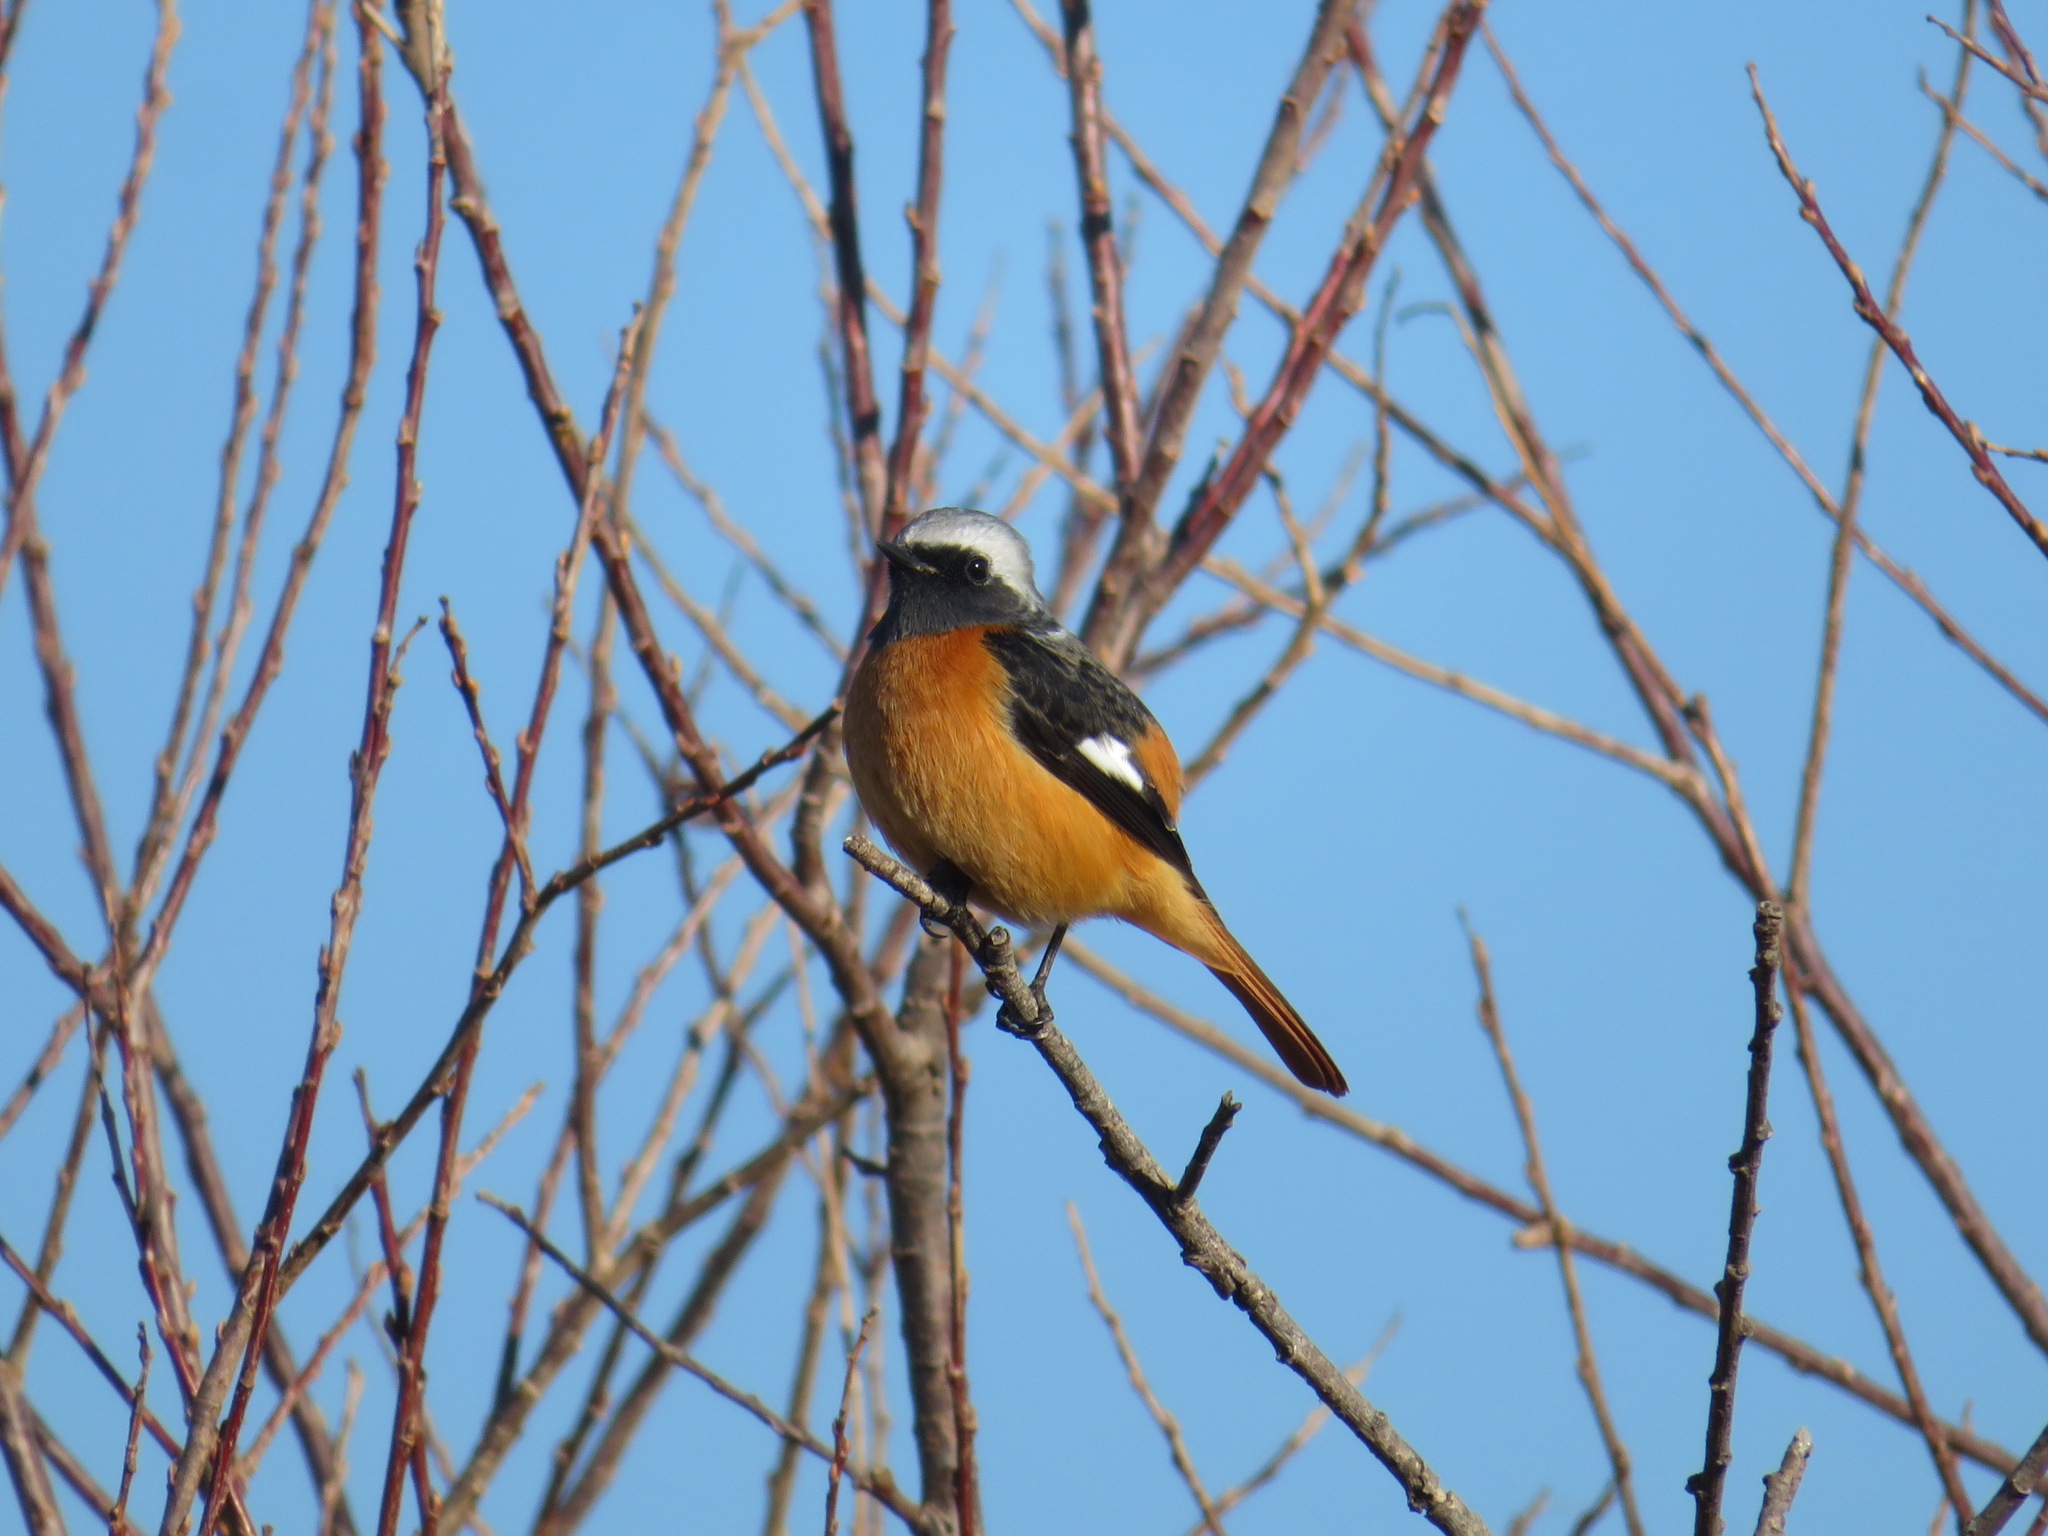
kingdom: Animalia
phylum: Chordata
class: Aves
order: Passeriformes
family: Muscicapidae
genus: Phoenicurus
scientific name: Phoenicurus auroreus
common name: Daurian redstart
